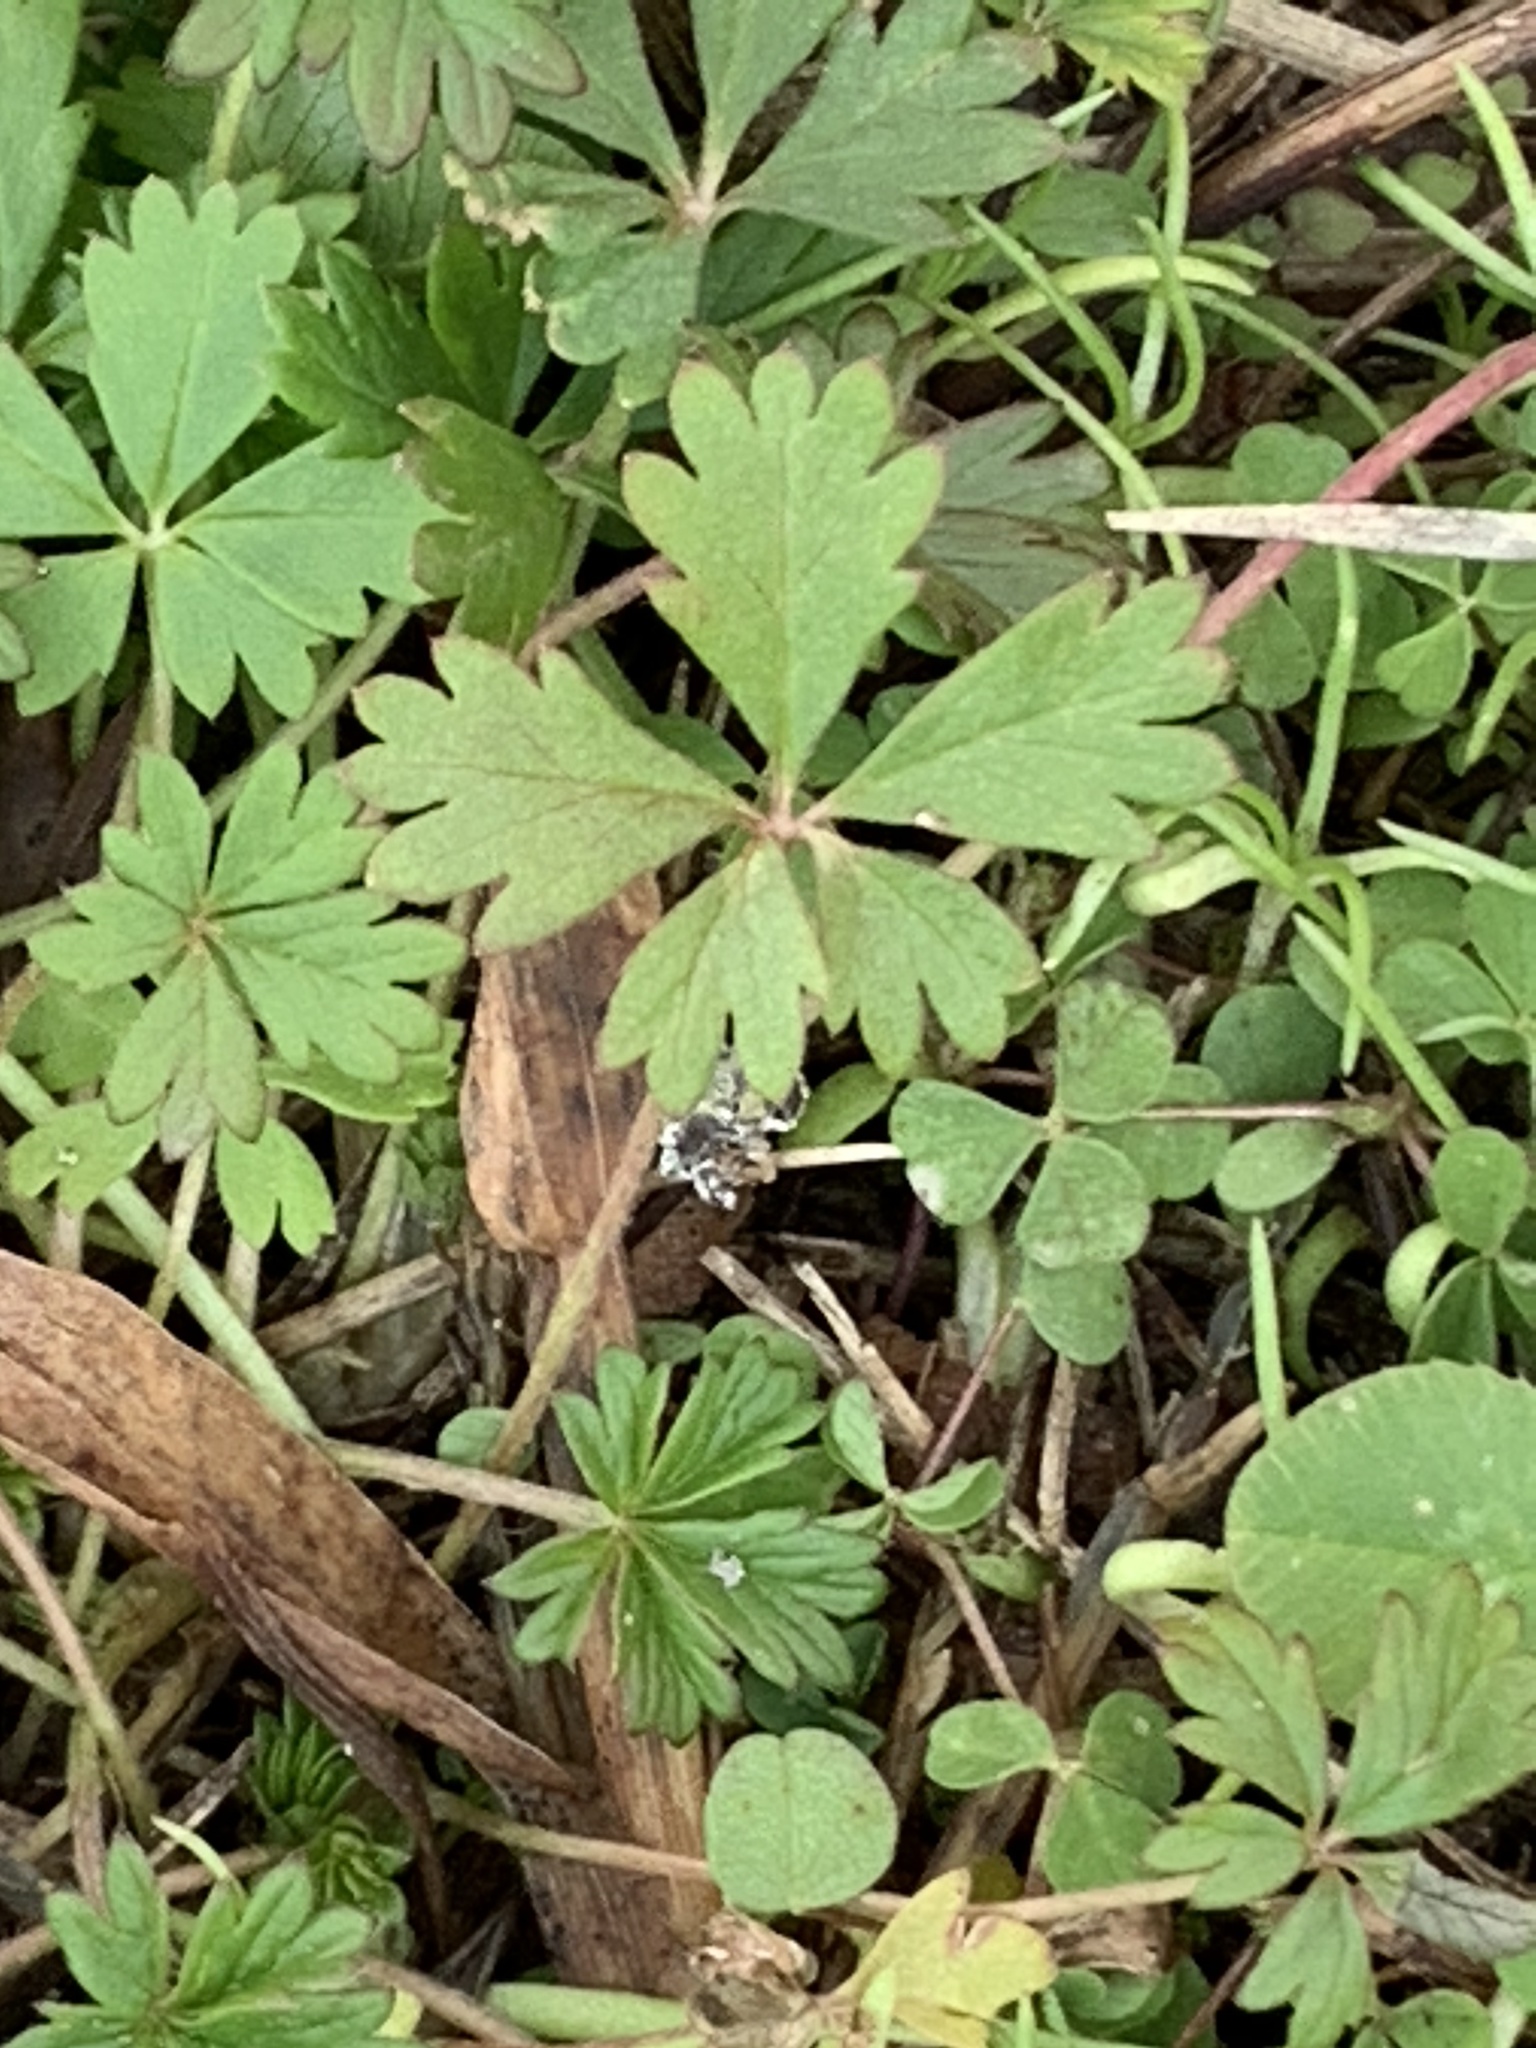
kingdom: Plantae
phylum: Tracheophyta
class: Magnoliopsida
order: Rosales
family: Rosaceae
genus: Potentilla
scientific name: Potentilla argentea
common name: Hoary cinquefoil
